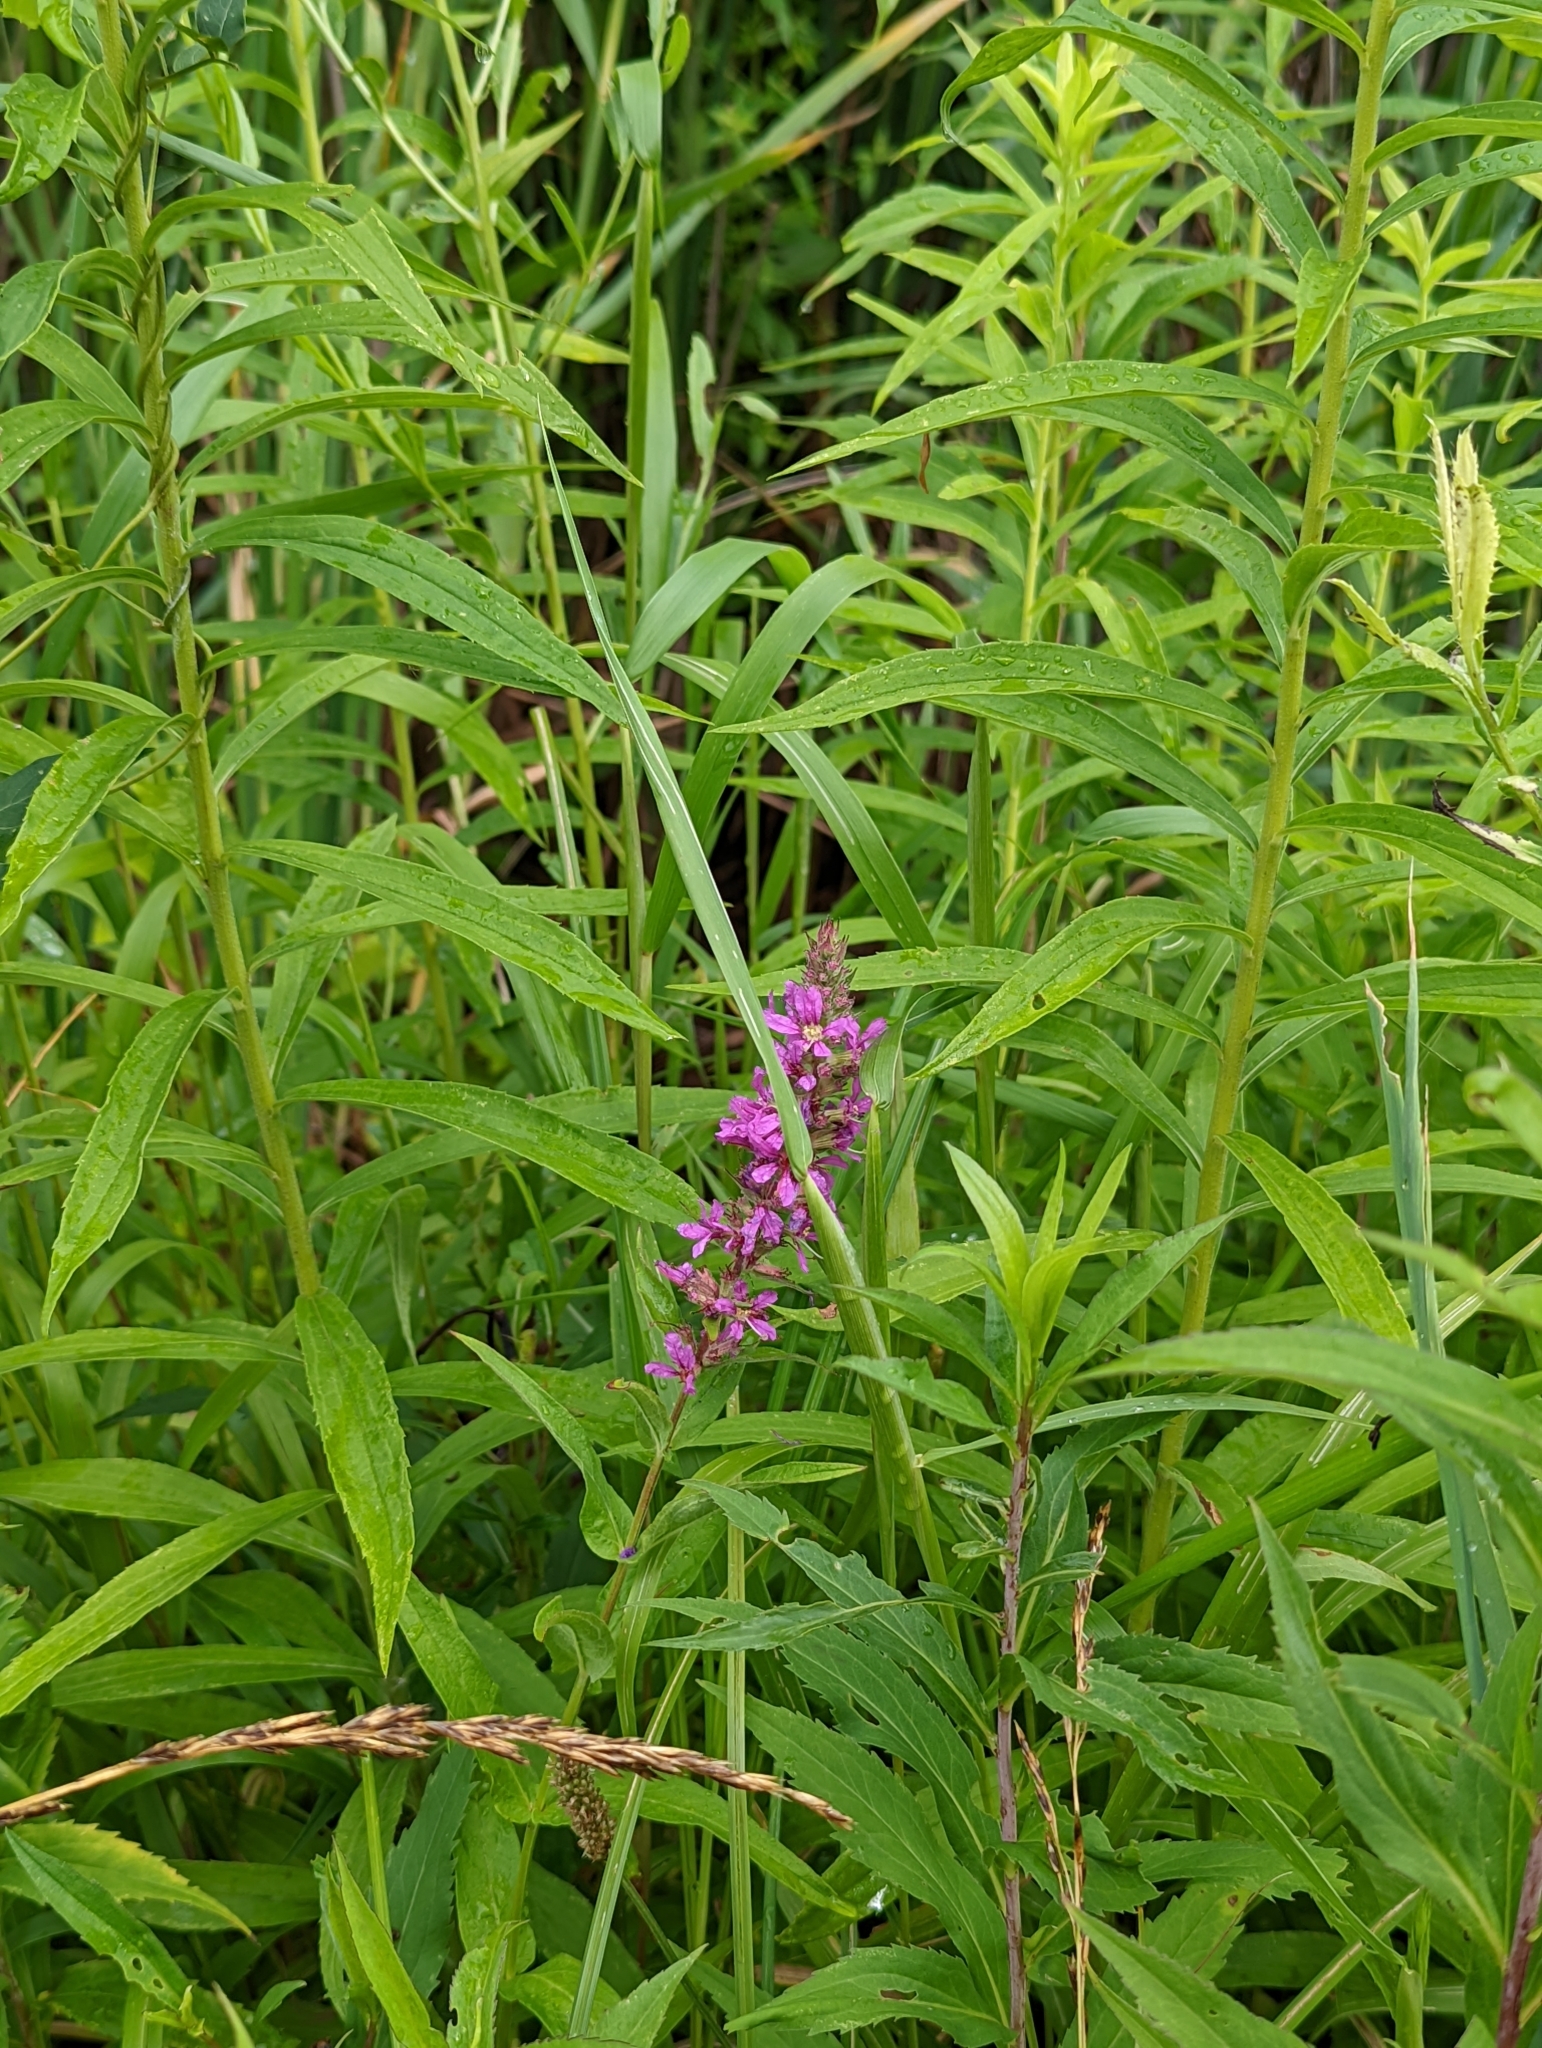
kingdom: Plantae
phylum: Tracheophyta
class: Magnoliopsida
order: Myrtales
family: Lythraceae
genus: Lythrum
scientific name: Lythrum salicaria
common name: Purple loosestrife
